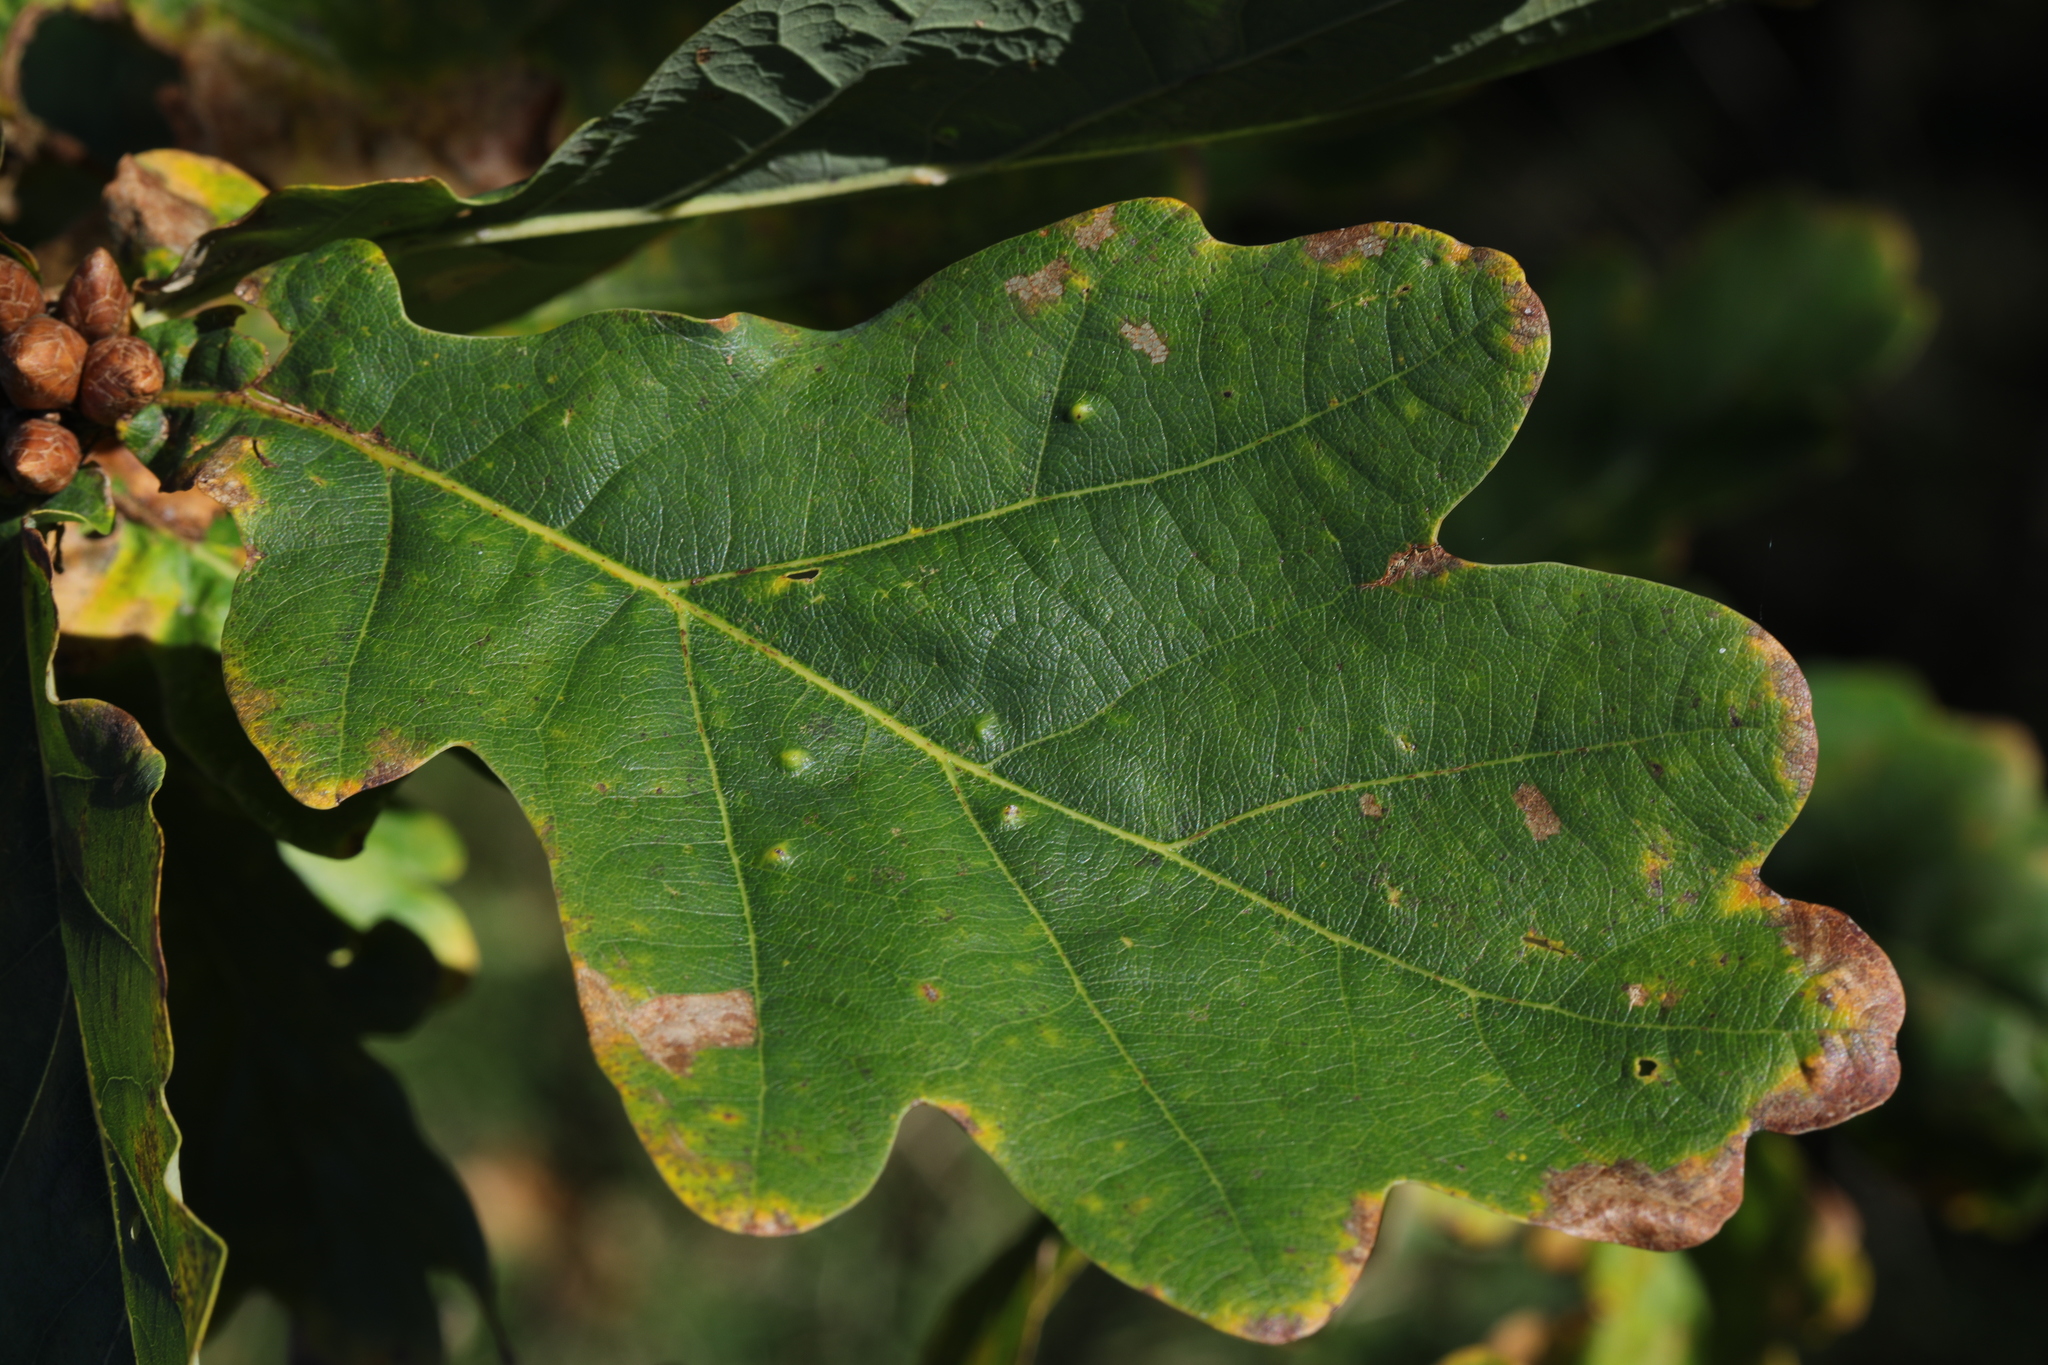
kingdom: Animalia
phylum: Arthropoda
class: Insecta
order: Hemiptera
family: Triozidae
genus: Trioza
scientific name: Trioza remota
